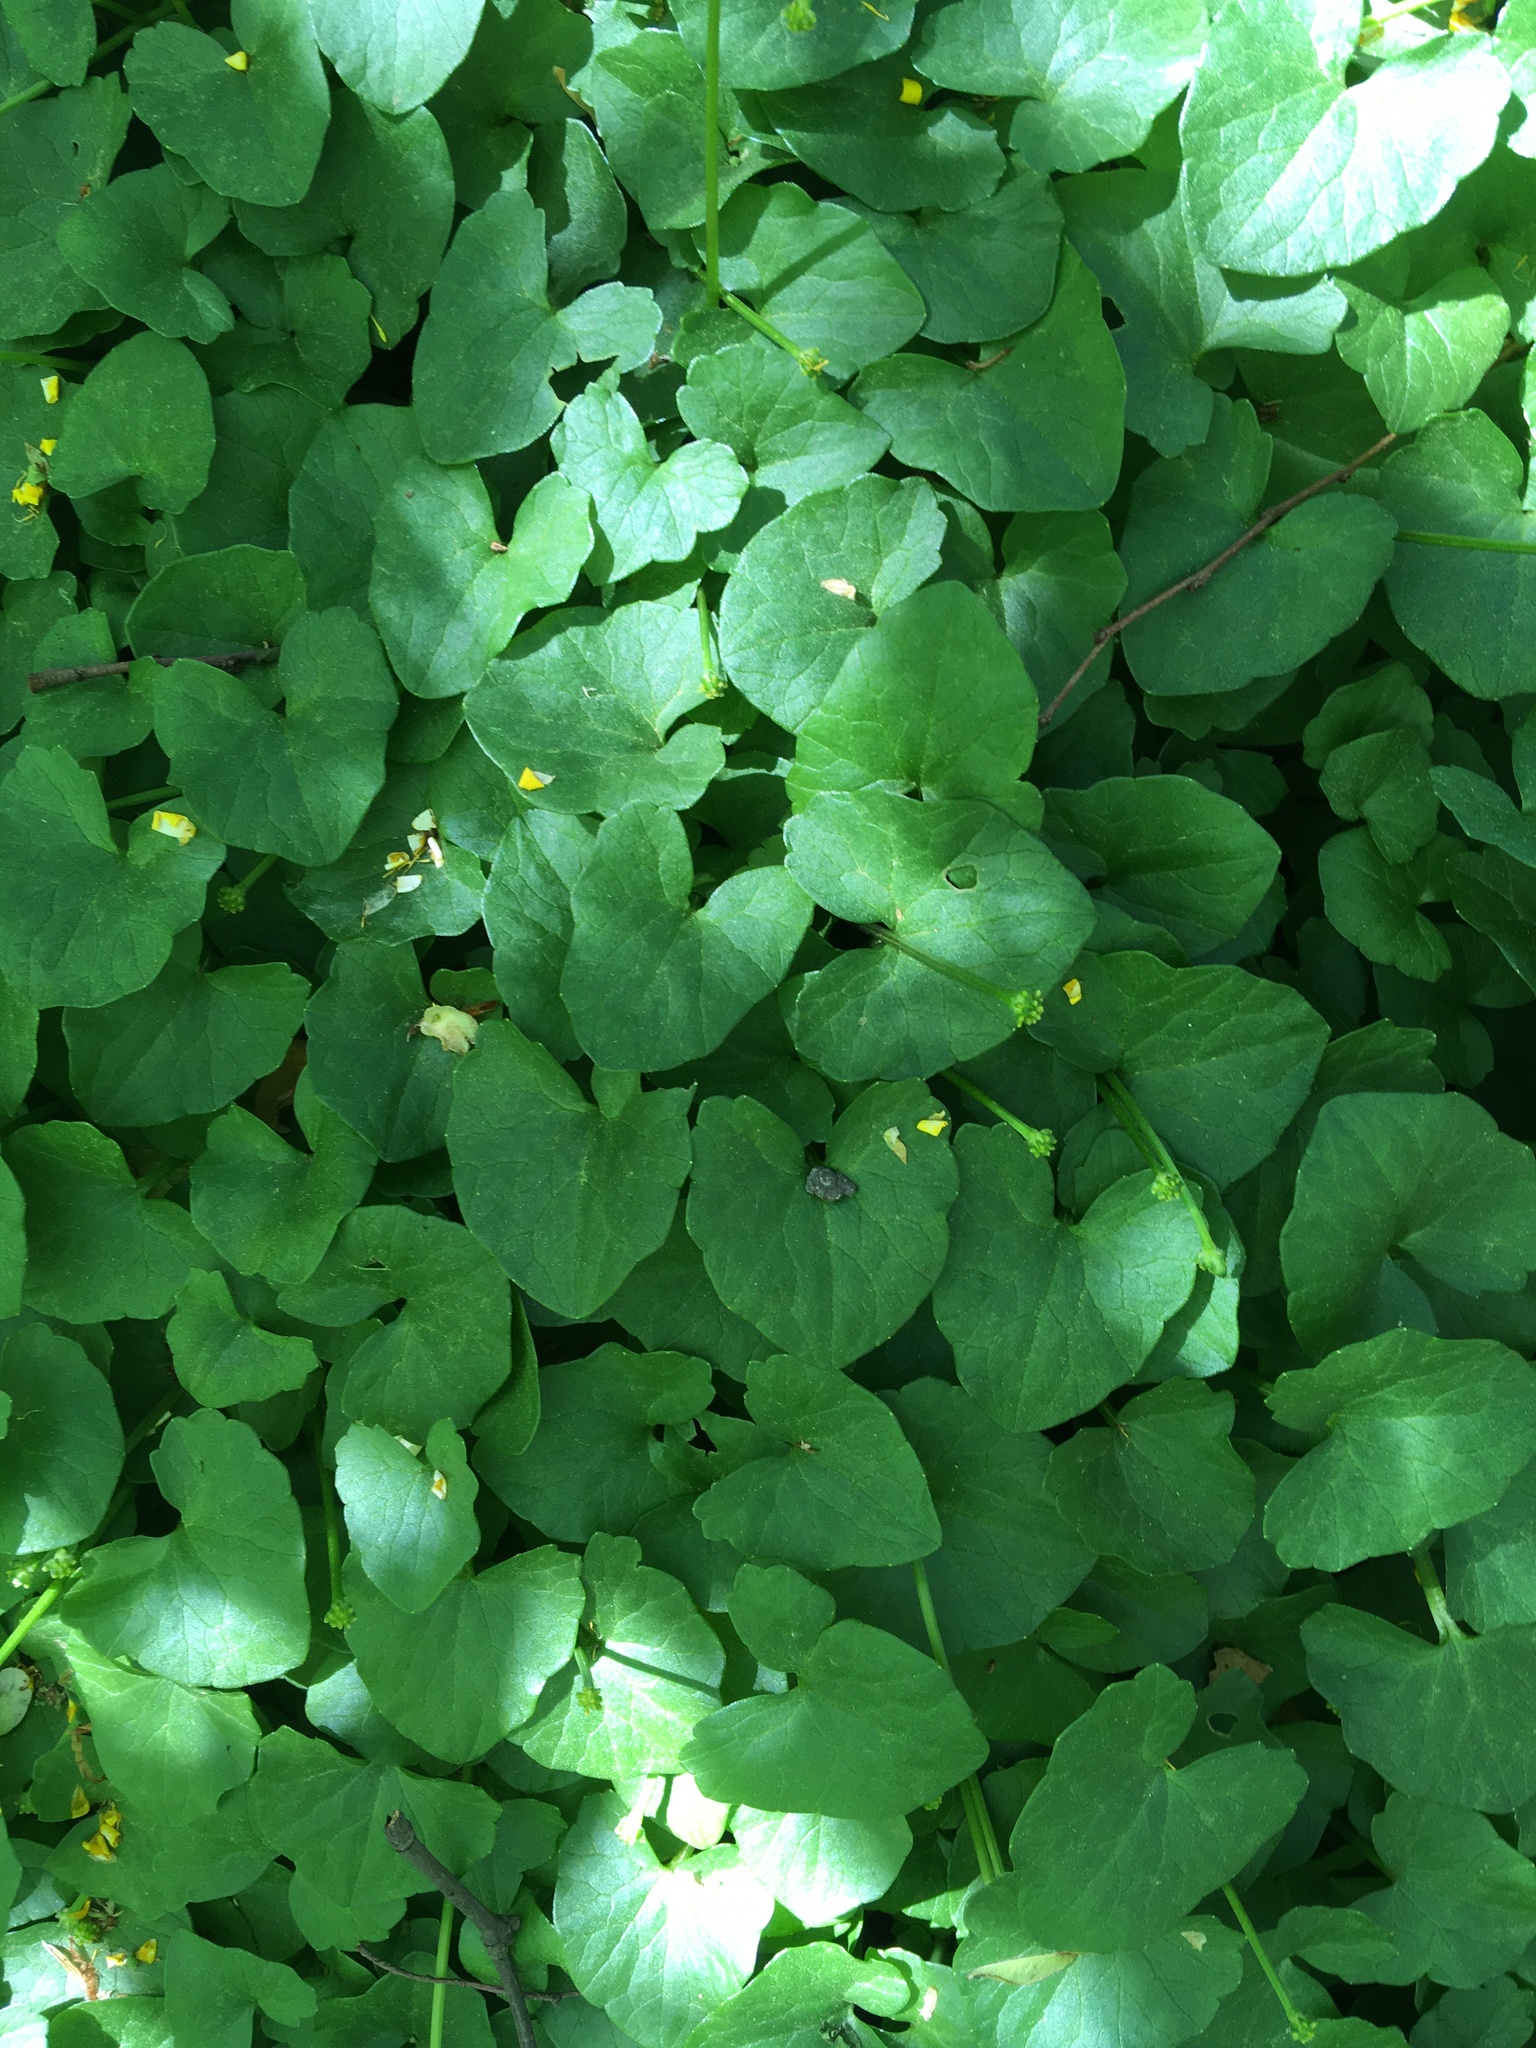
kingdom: Plantae
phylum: Tracheophyta
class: Magnoliopsida
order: Ranunculales
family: Ranunculaceae
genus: Ficaria
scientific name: Ficaria verna
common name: Lesser celandine
